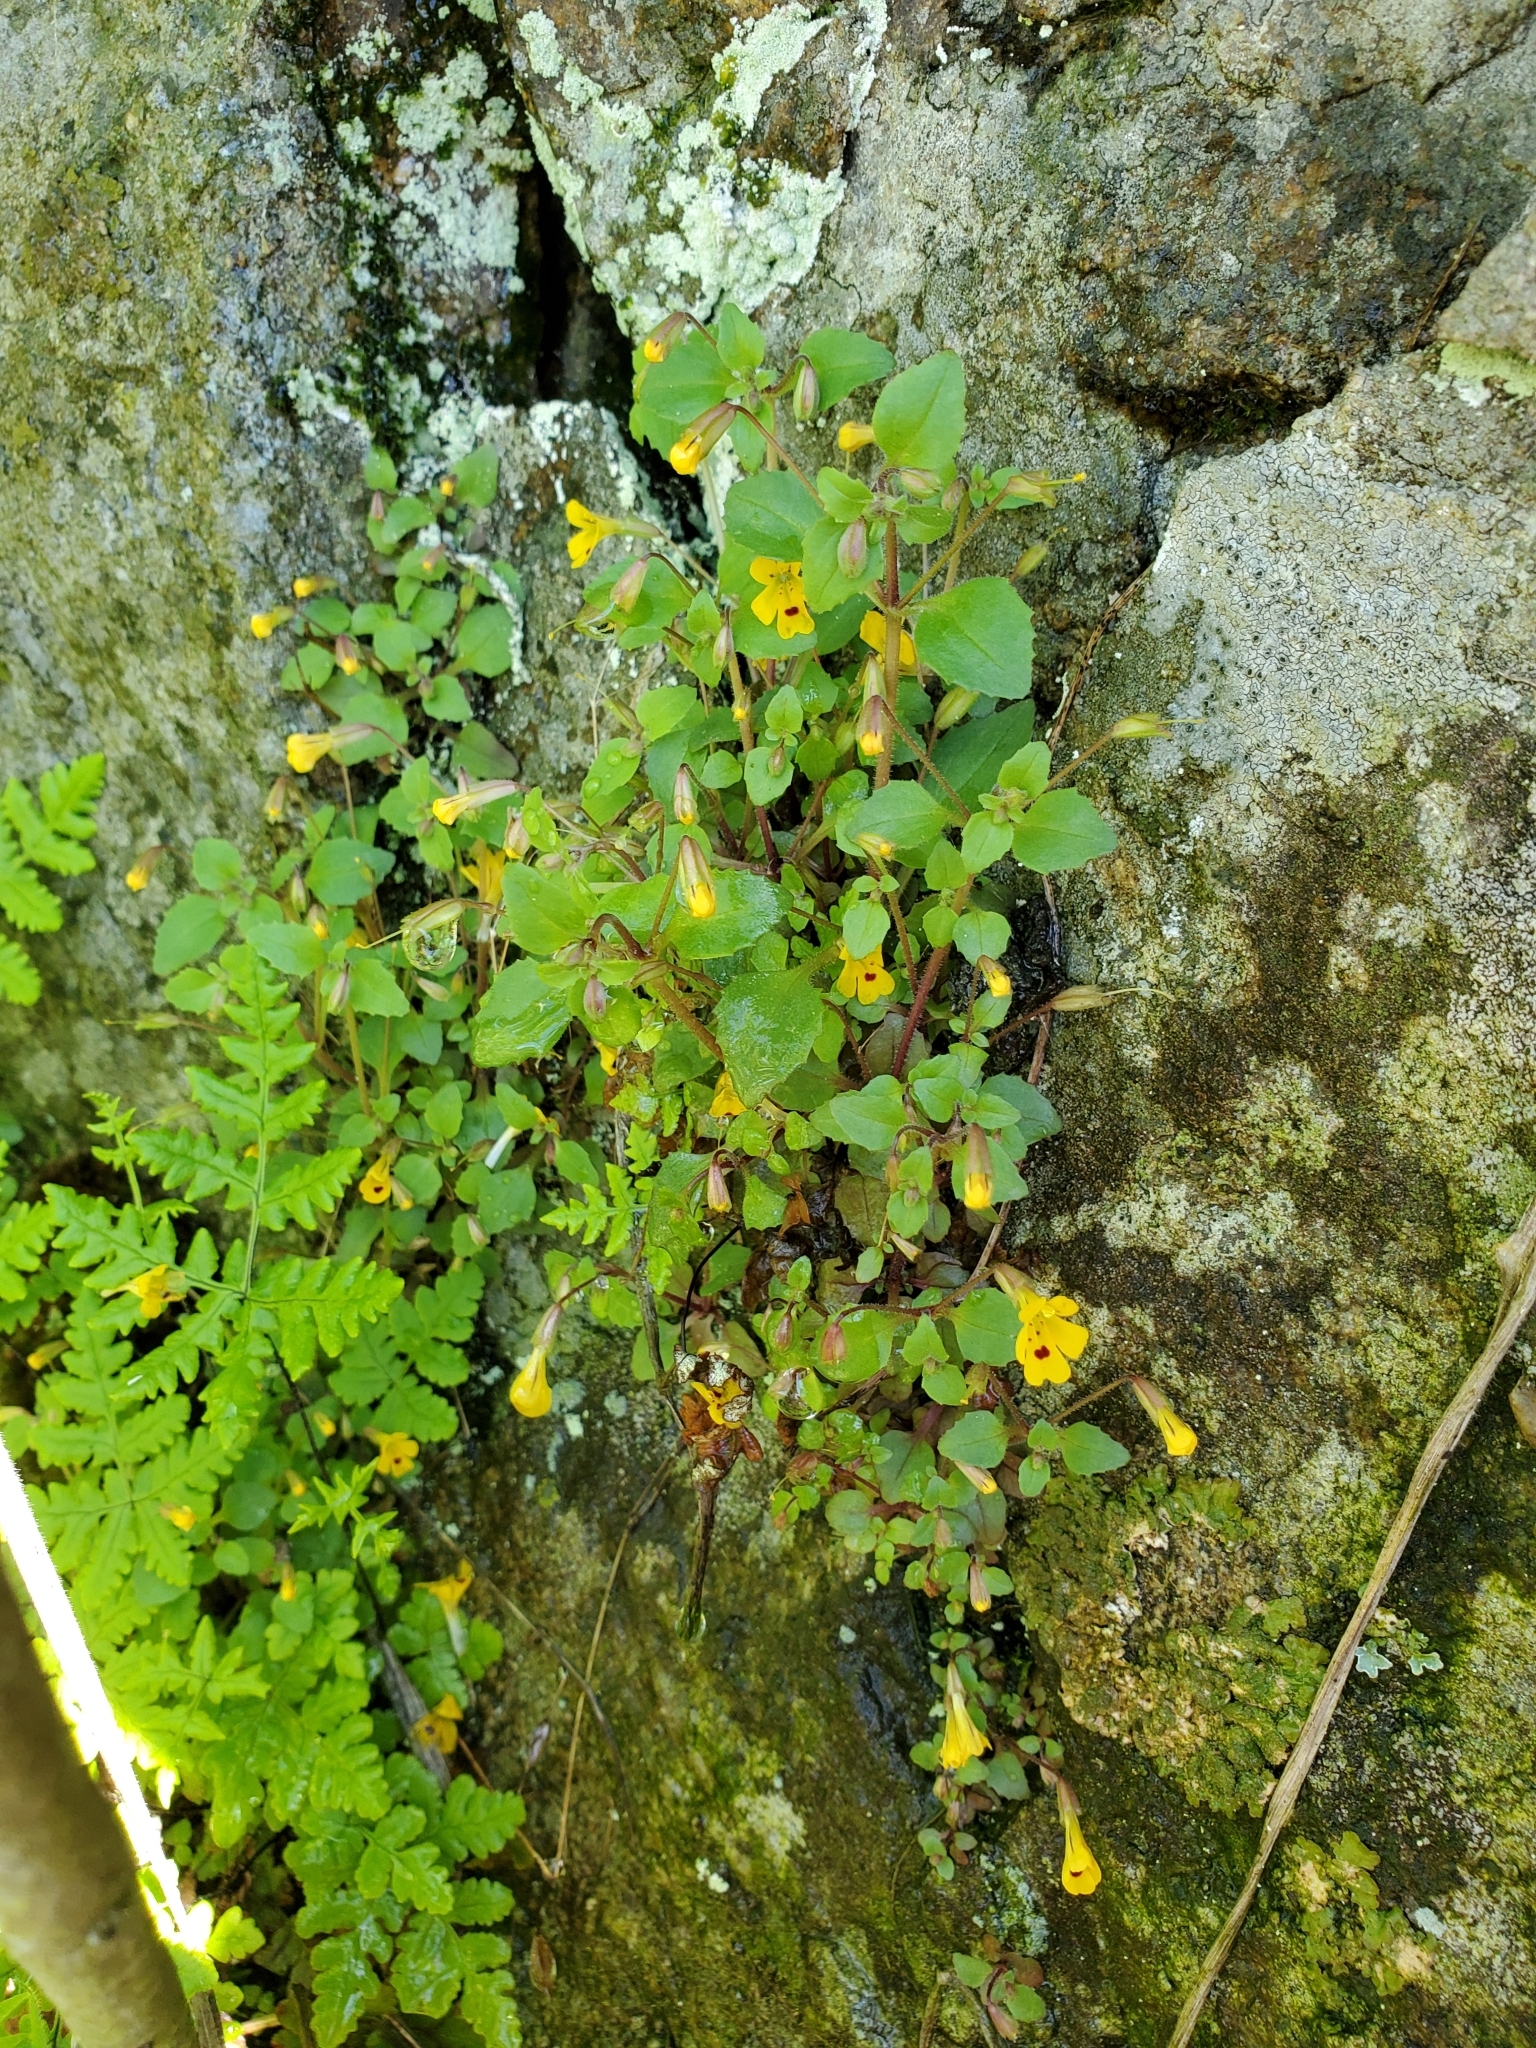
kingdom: Plantae
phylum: Tracheophyta
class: Magnoliopsida
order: Lamiales
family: Phrymaceae
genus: Erythranthe
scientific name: Erythranthe alsinoides
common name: Chickweed monkeyflower
